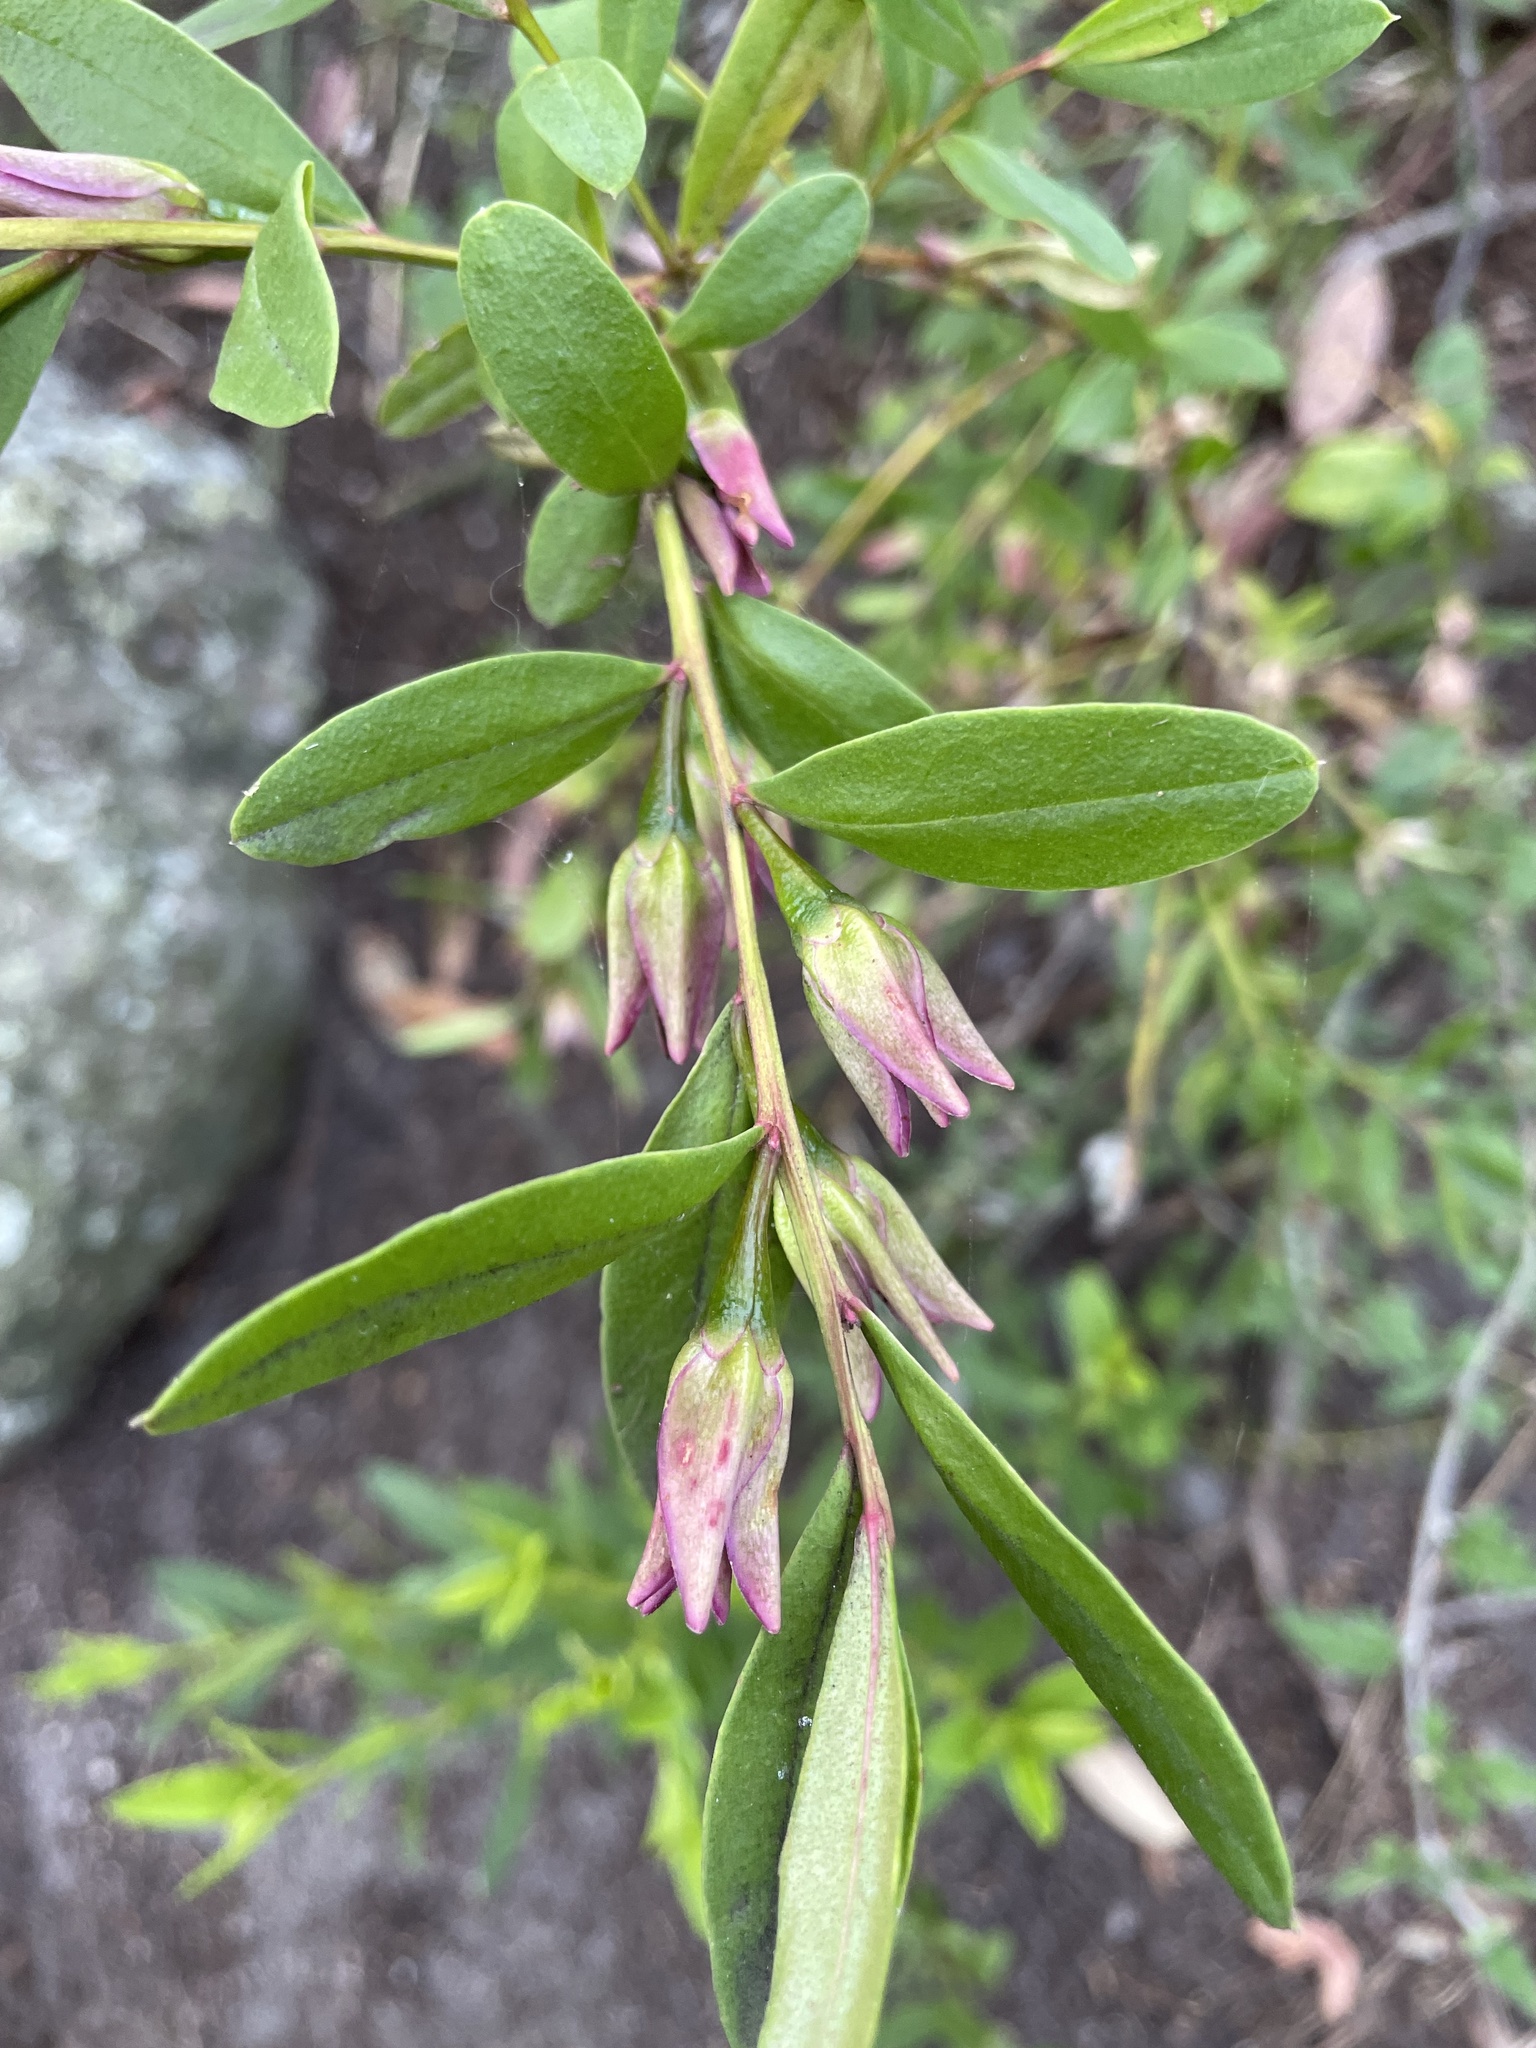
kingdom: Plantae
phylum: Tracheophyta
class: Magnoliopsida
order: Sapindales
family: Rutaceae
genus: Crowea
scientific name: Crowea saligna
